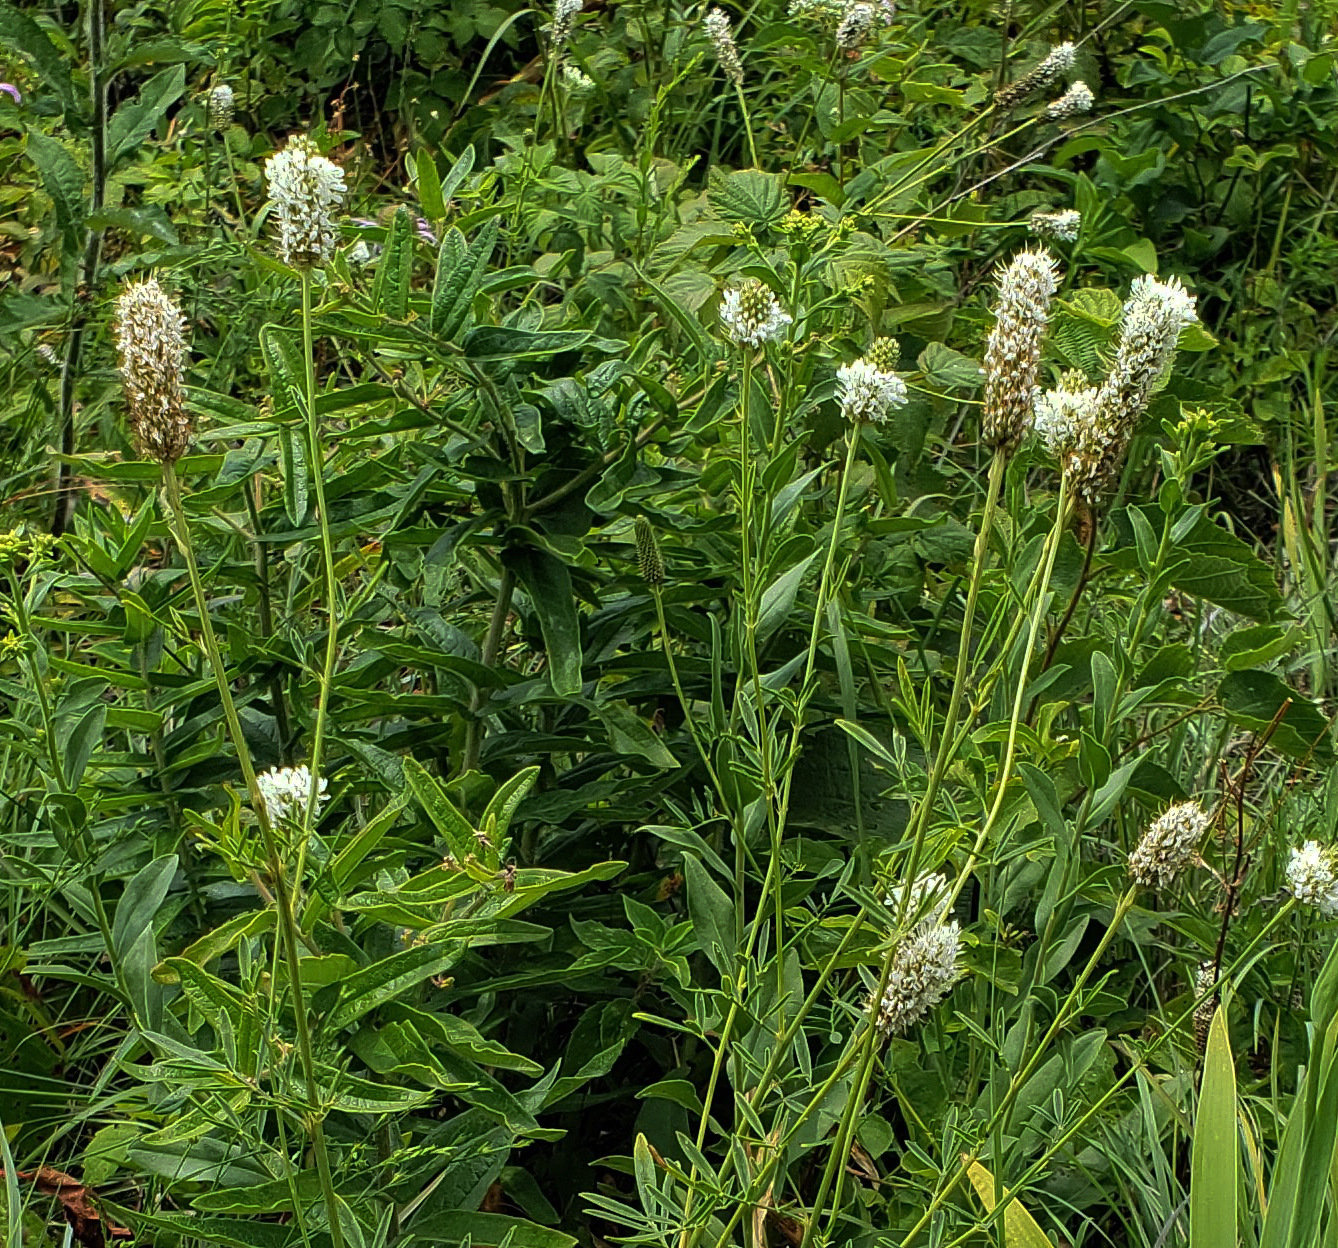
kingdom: Plantae
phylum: Tracheophyta
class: Magnoliopsida
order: Fabales
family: Fabaceae
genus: Dalea
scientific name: Dalea candida
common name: White prairie-clover
